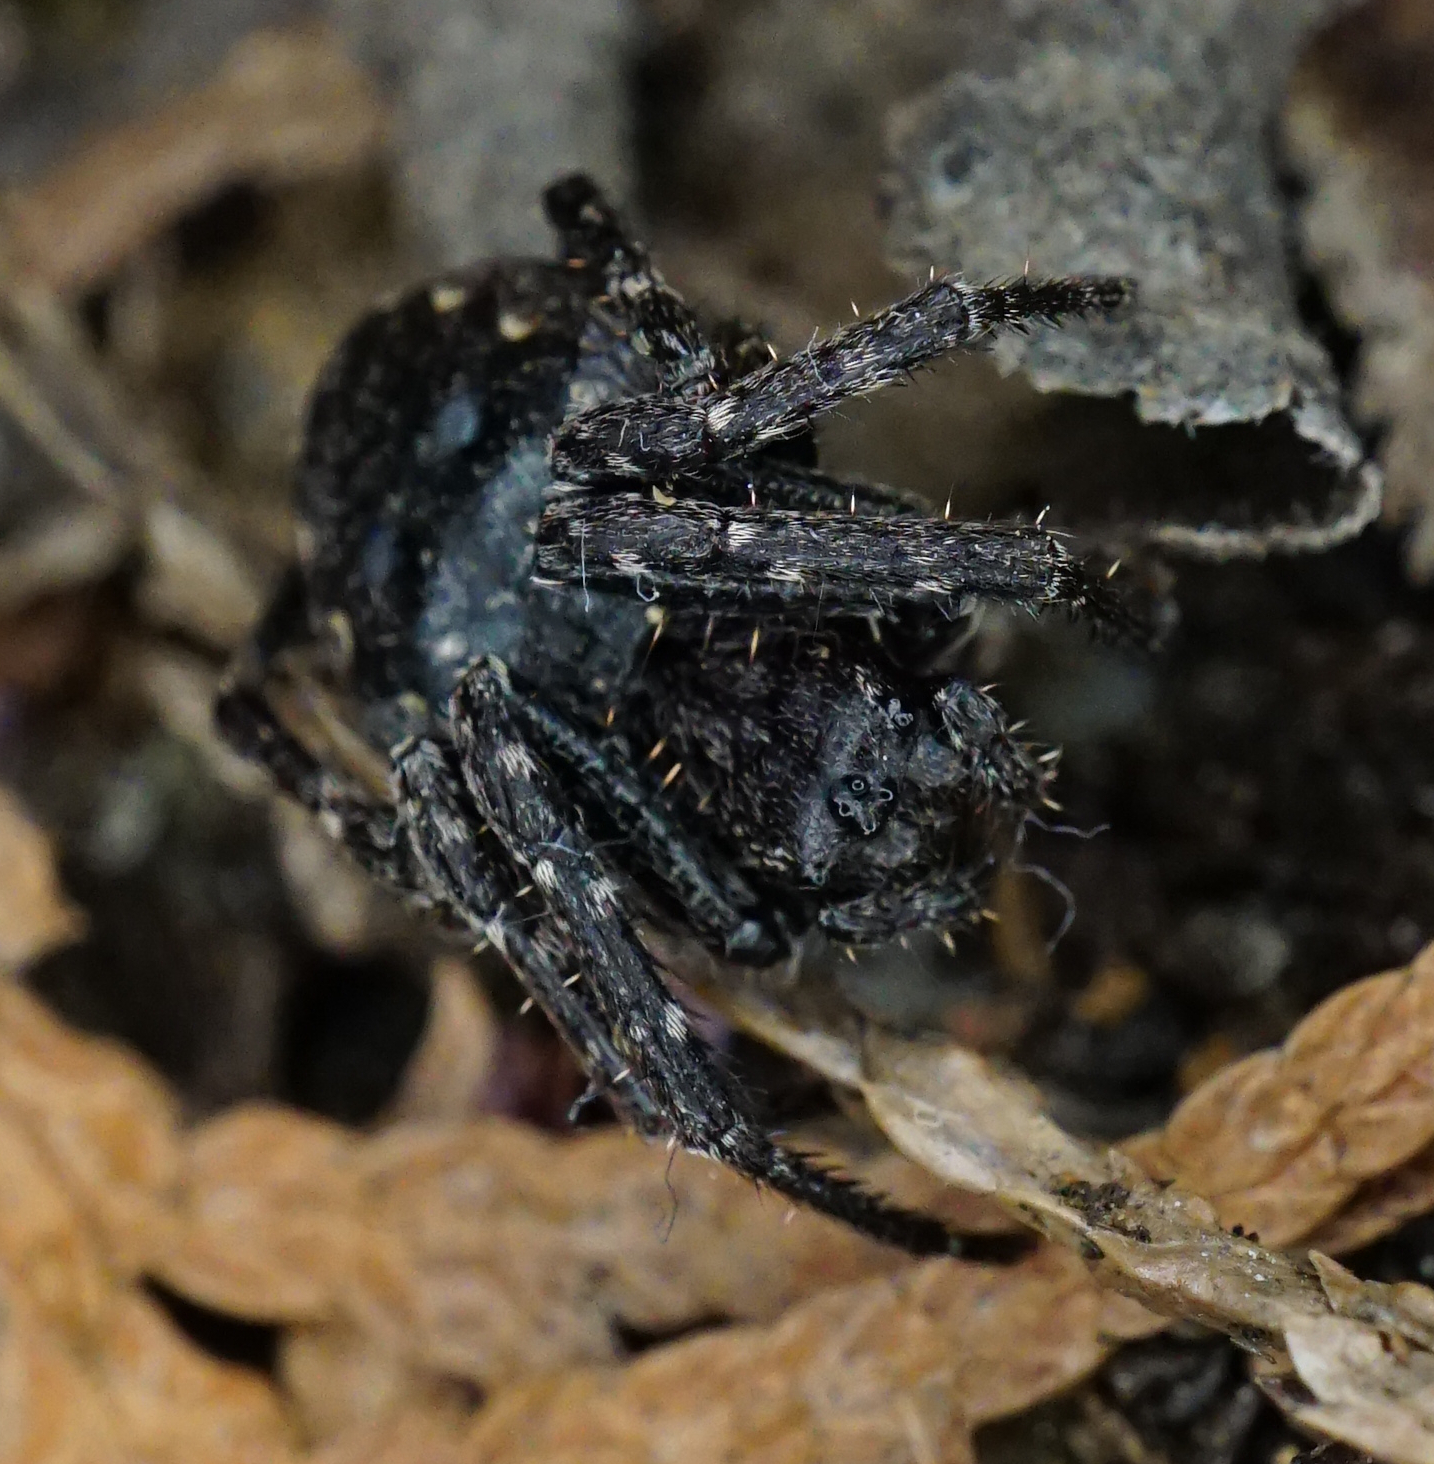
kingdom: Animalia
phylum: Arthropoda
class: Arachnida
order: Araneae
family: Araneidae
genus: Nuctenea
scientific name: Nuctenea umbratica
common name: Toad spider
